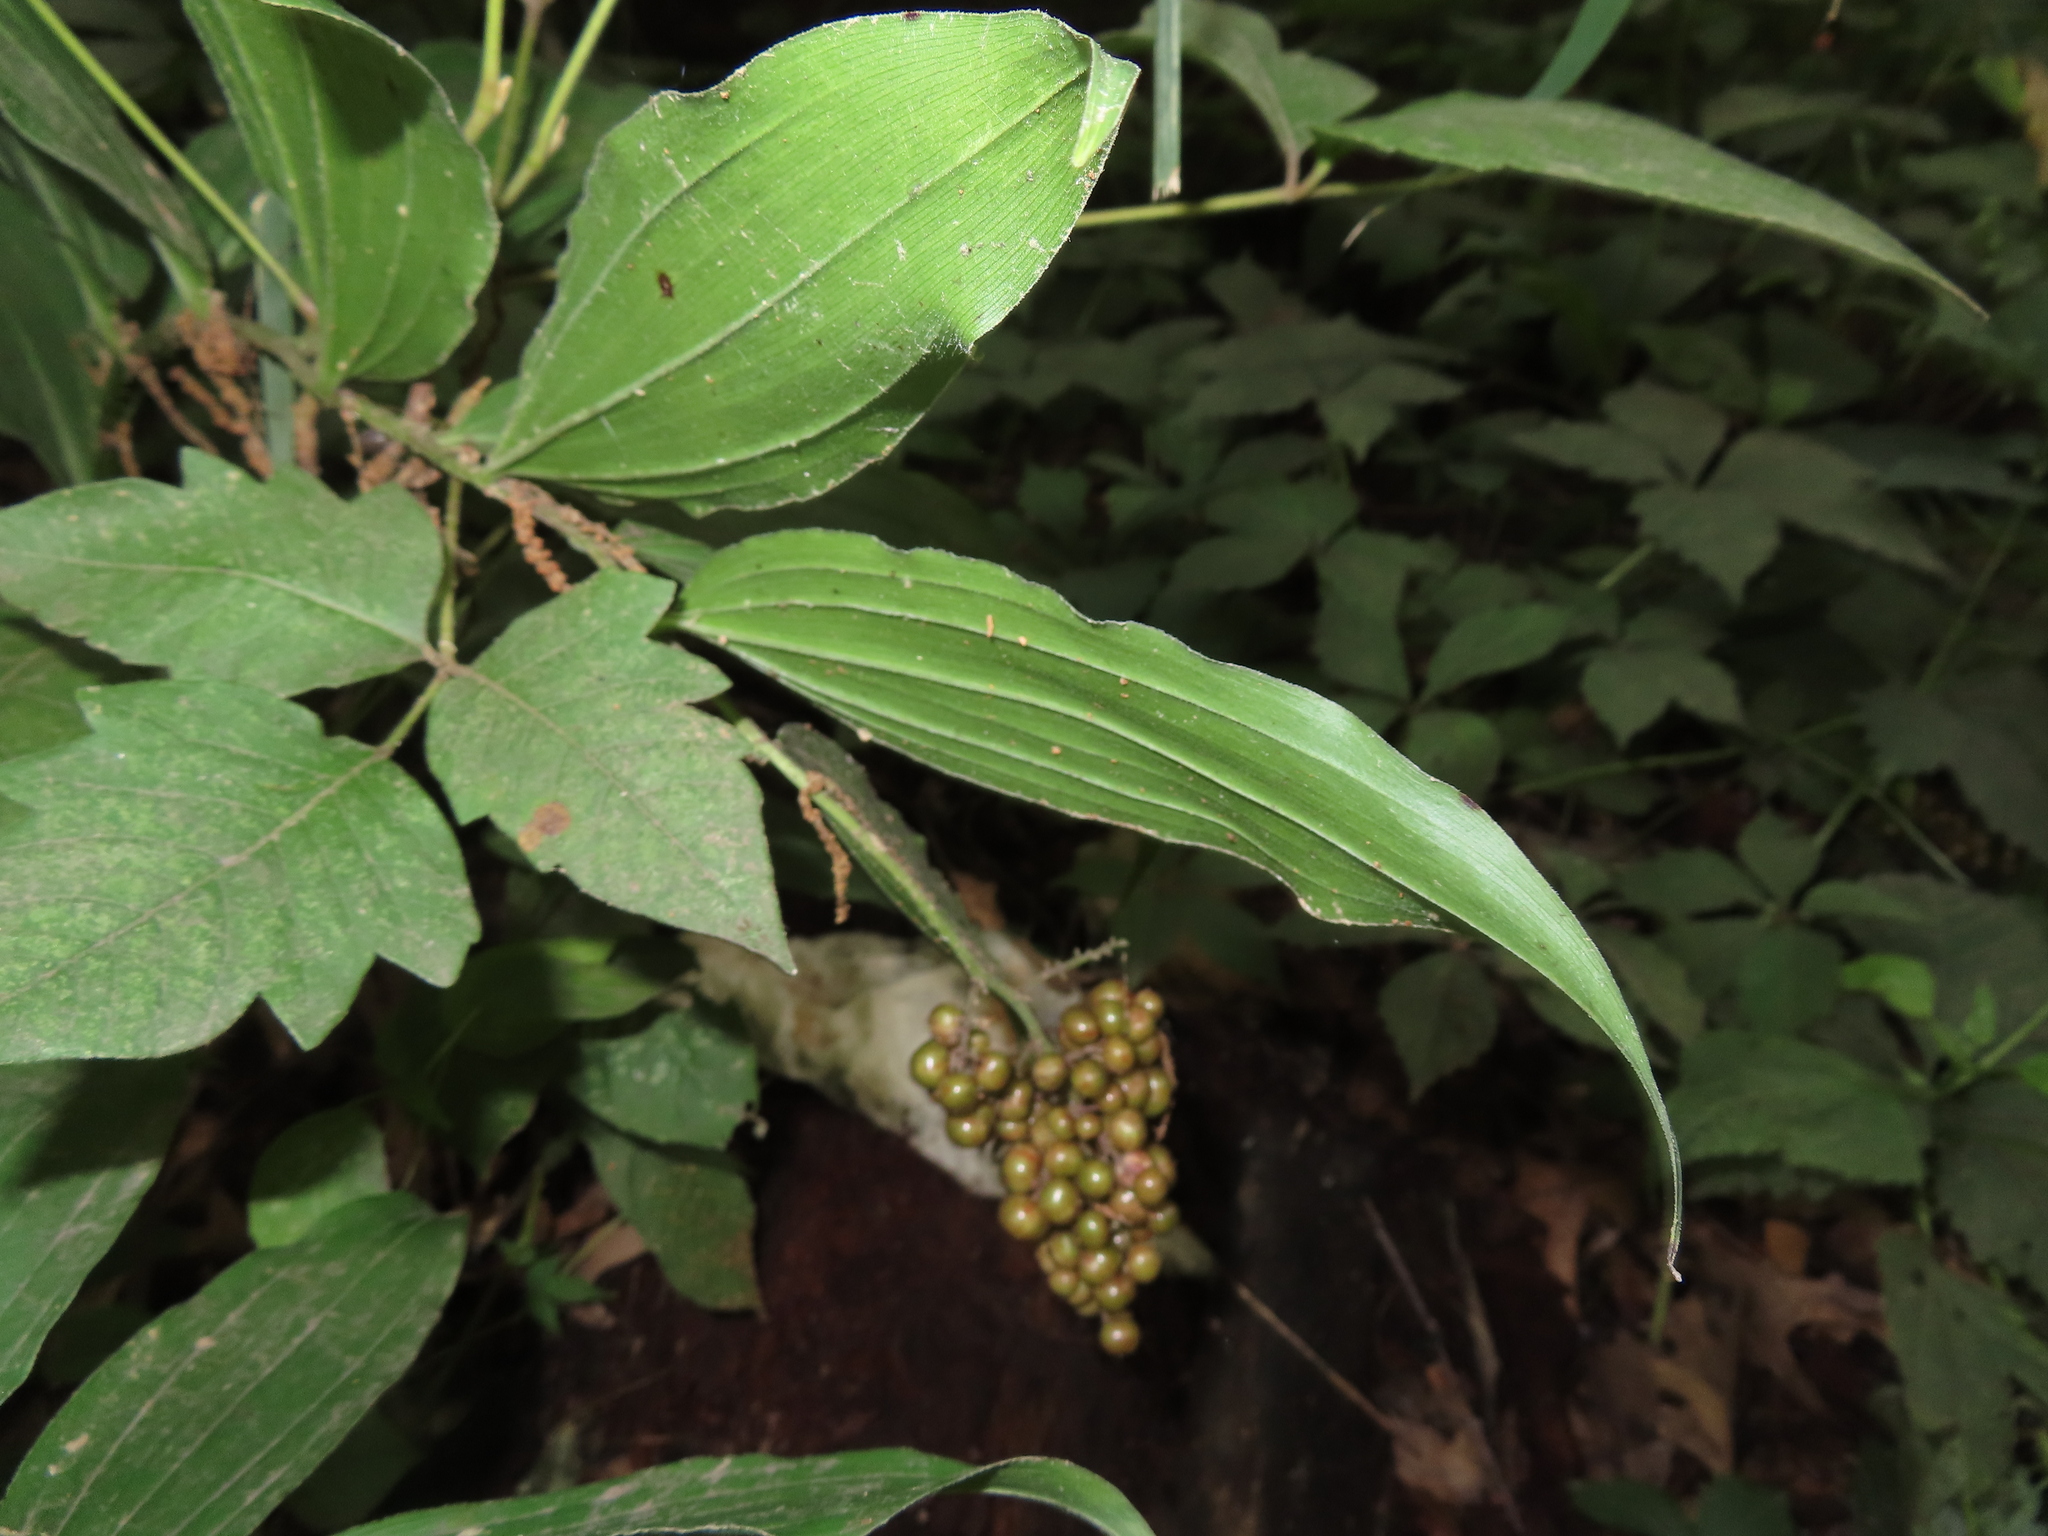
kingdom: Plantae
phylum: Tracheophyta
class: Liliopsida
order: Asparagales
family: Asparagaceae
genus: Maianthemum
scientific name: Maianthemum racemosum
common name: False spikenard
